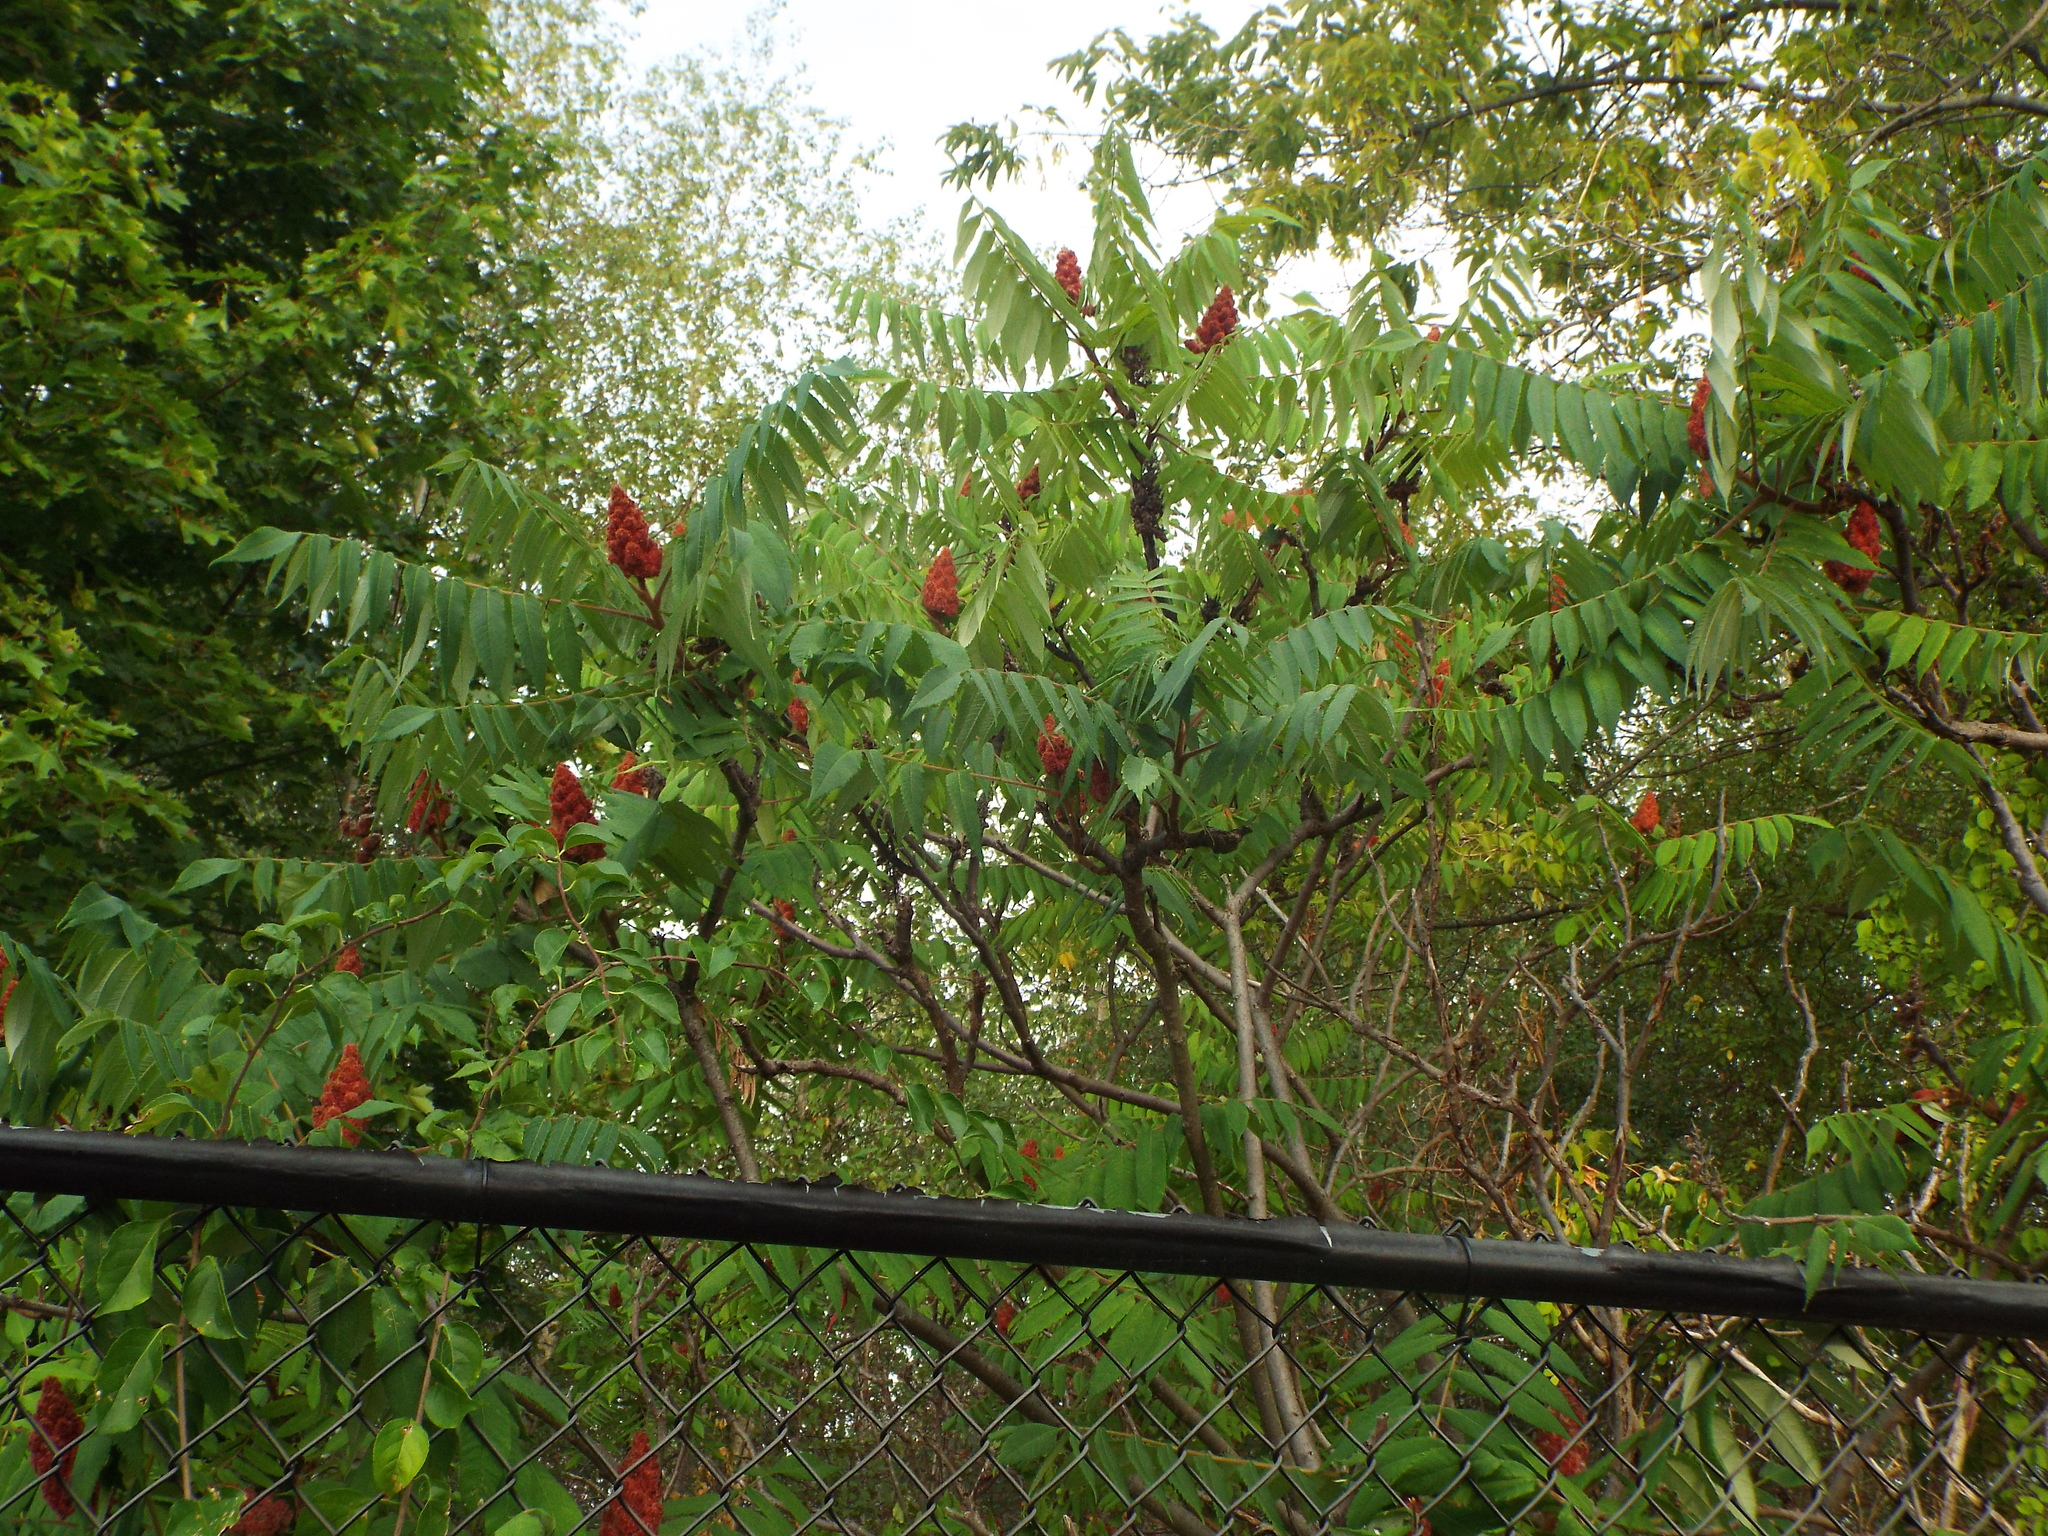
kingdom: Plantae
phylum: Tracheophyta
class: Magnoliopsida
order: Sapindales
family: Anacardiaceae
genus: Rhus
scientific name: Rhus typhina
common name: Staghorn sumac
